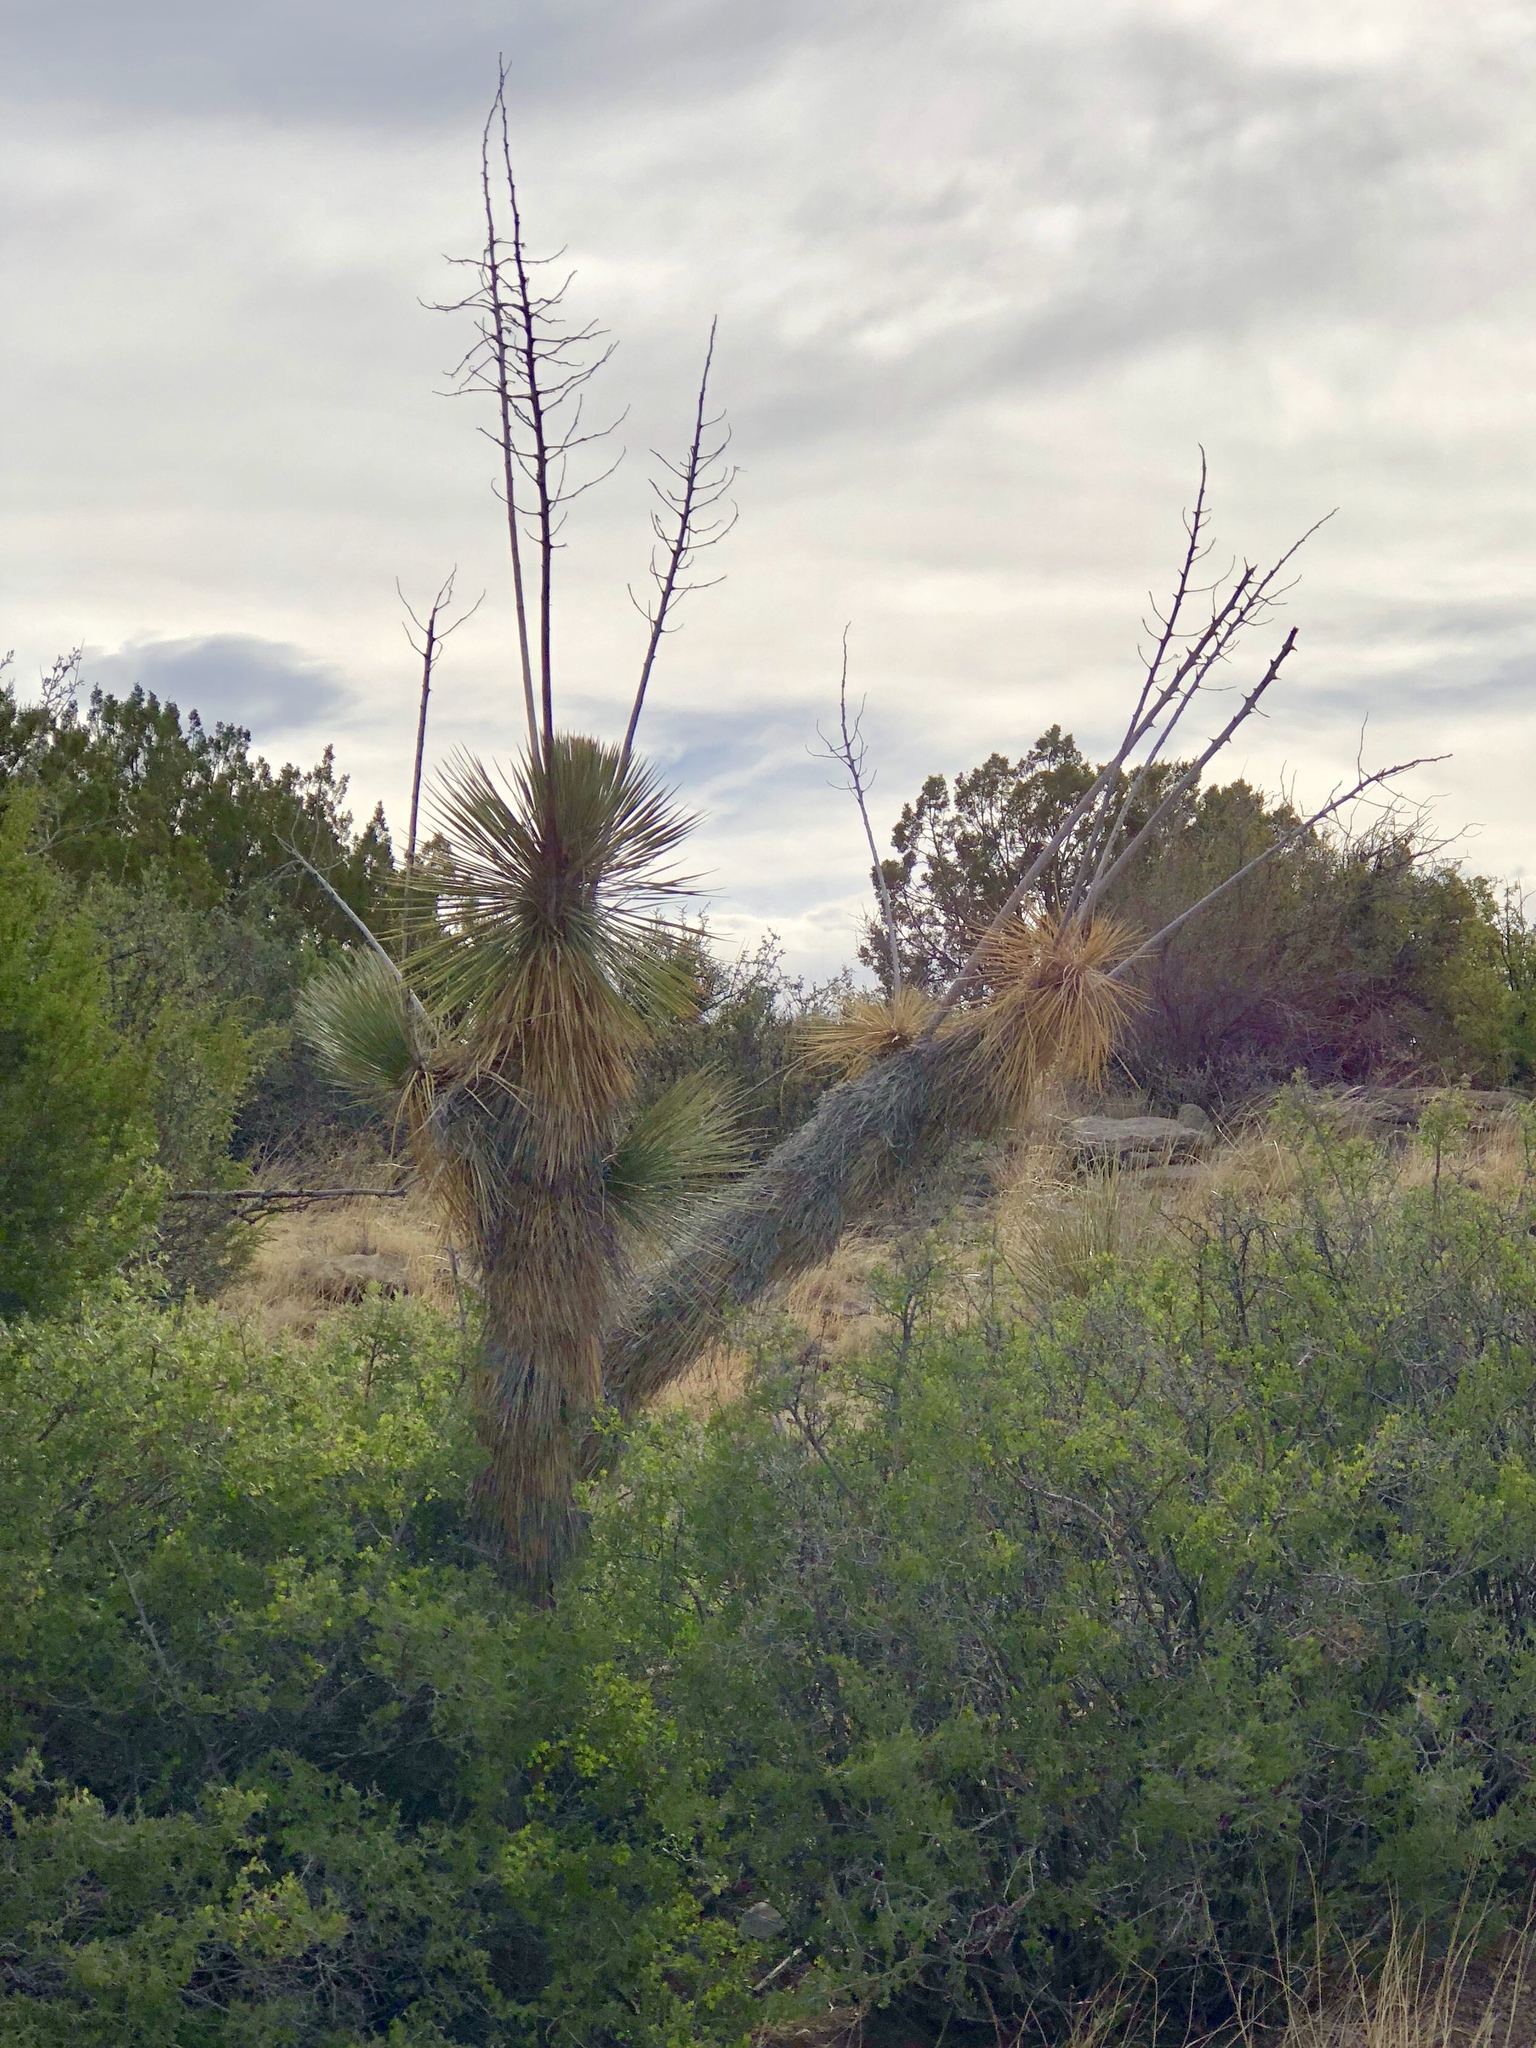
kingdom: Plantae
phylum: Tracheophyta
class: Liliopsida
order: Asparagales
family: Asparagaceae
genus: Yucca
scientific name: Yucca elata
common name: Palmella
